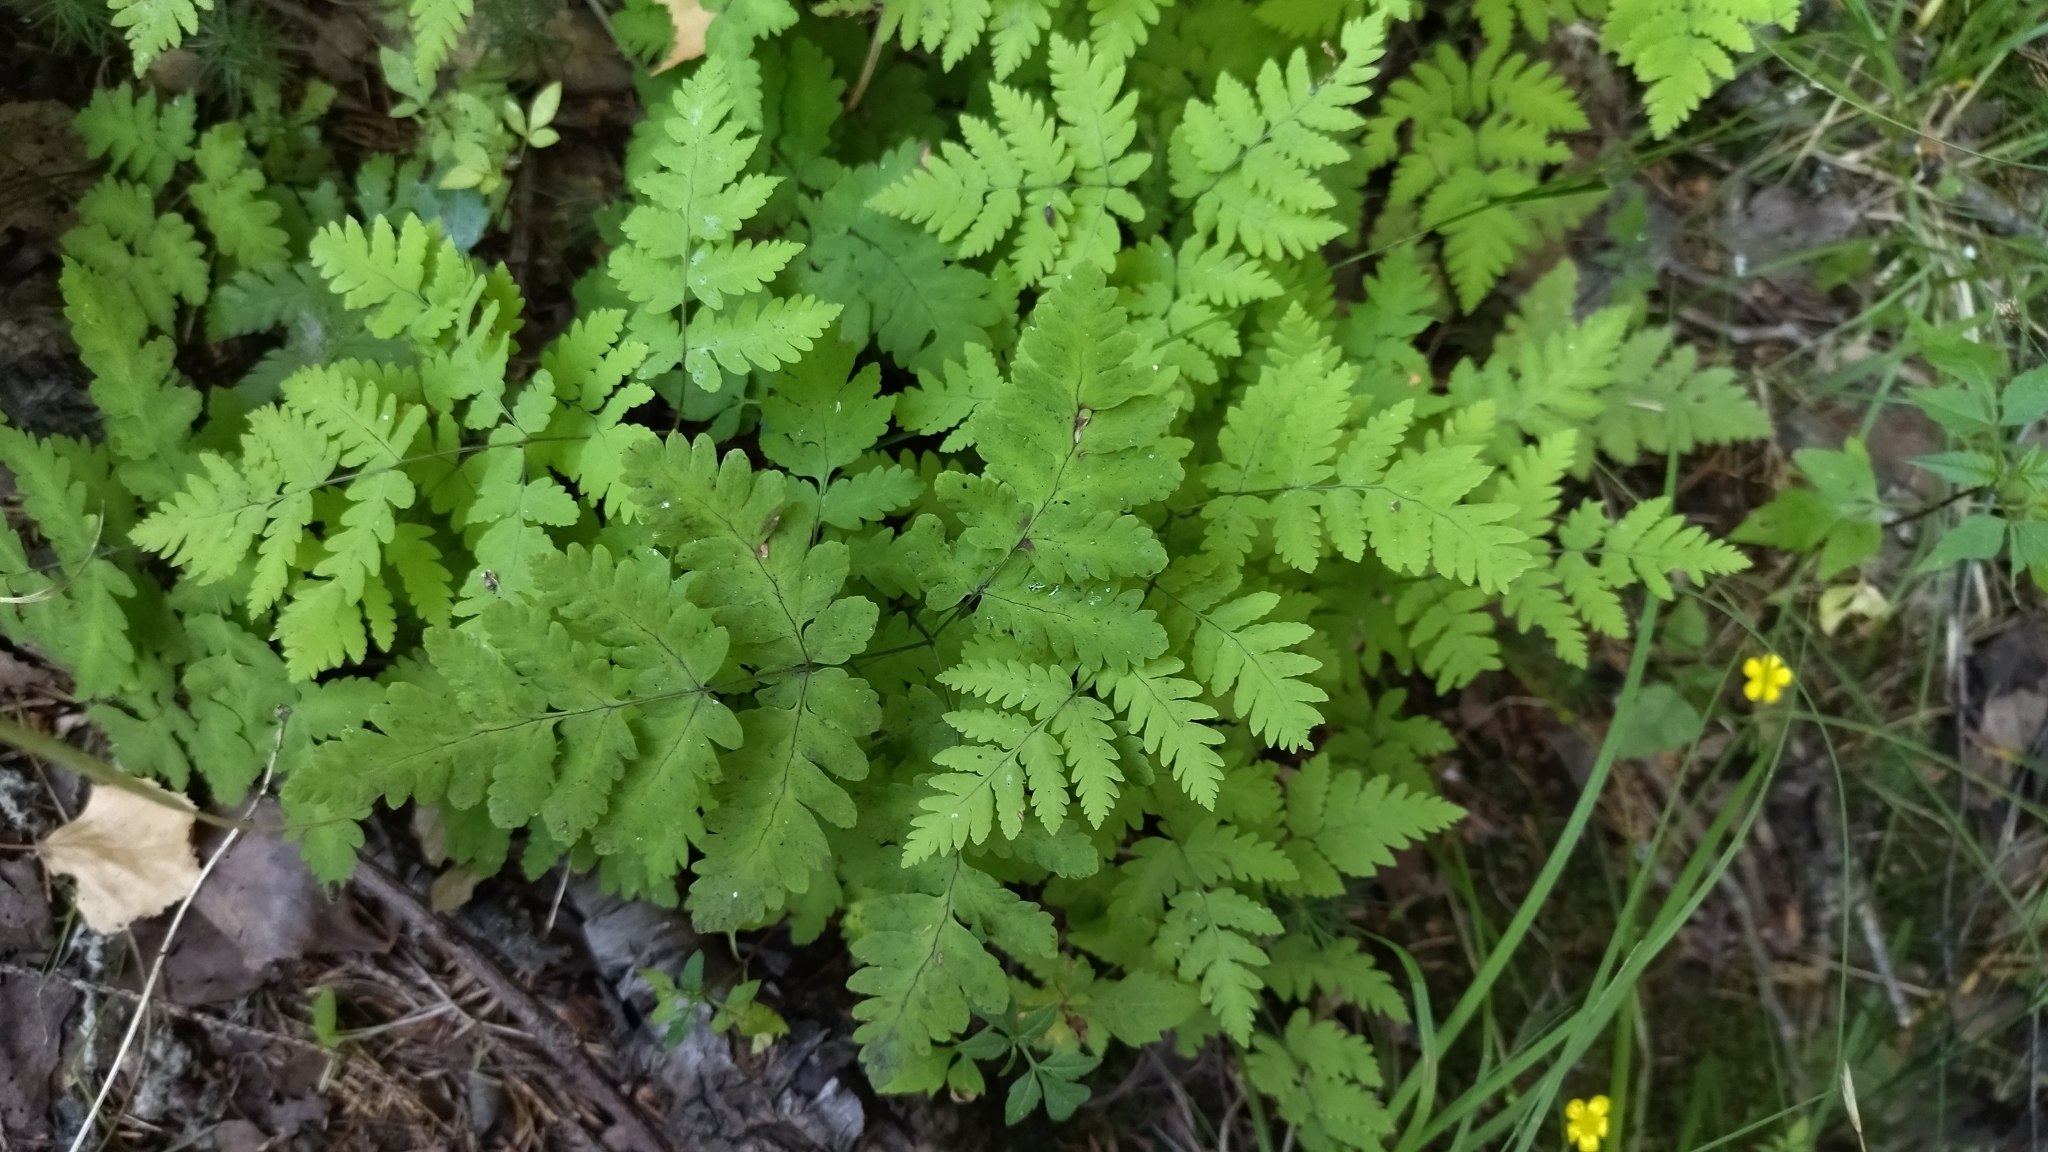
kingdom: Plantae
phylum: Tracheophyta
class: Polypodiopsida
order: Polypodiales
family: Cystopteridaceae
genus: Gymnocarpium
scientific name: Gymnocarpium dryopteris
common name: Oak fern
